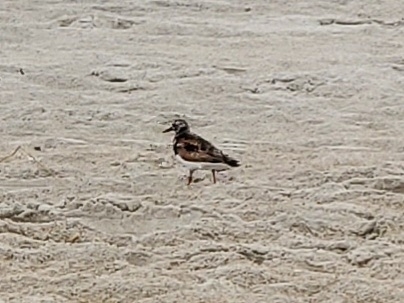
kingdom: Animalia
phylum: Chordata
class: Aves
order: Charadriiformes
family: Scolopacidae
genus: Arenaria
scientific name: Arenaria interpres
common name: Ruddy turnstone
